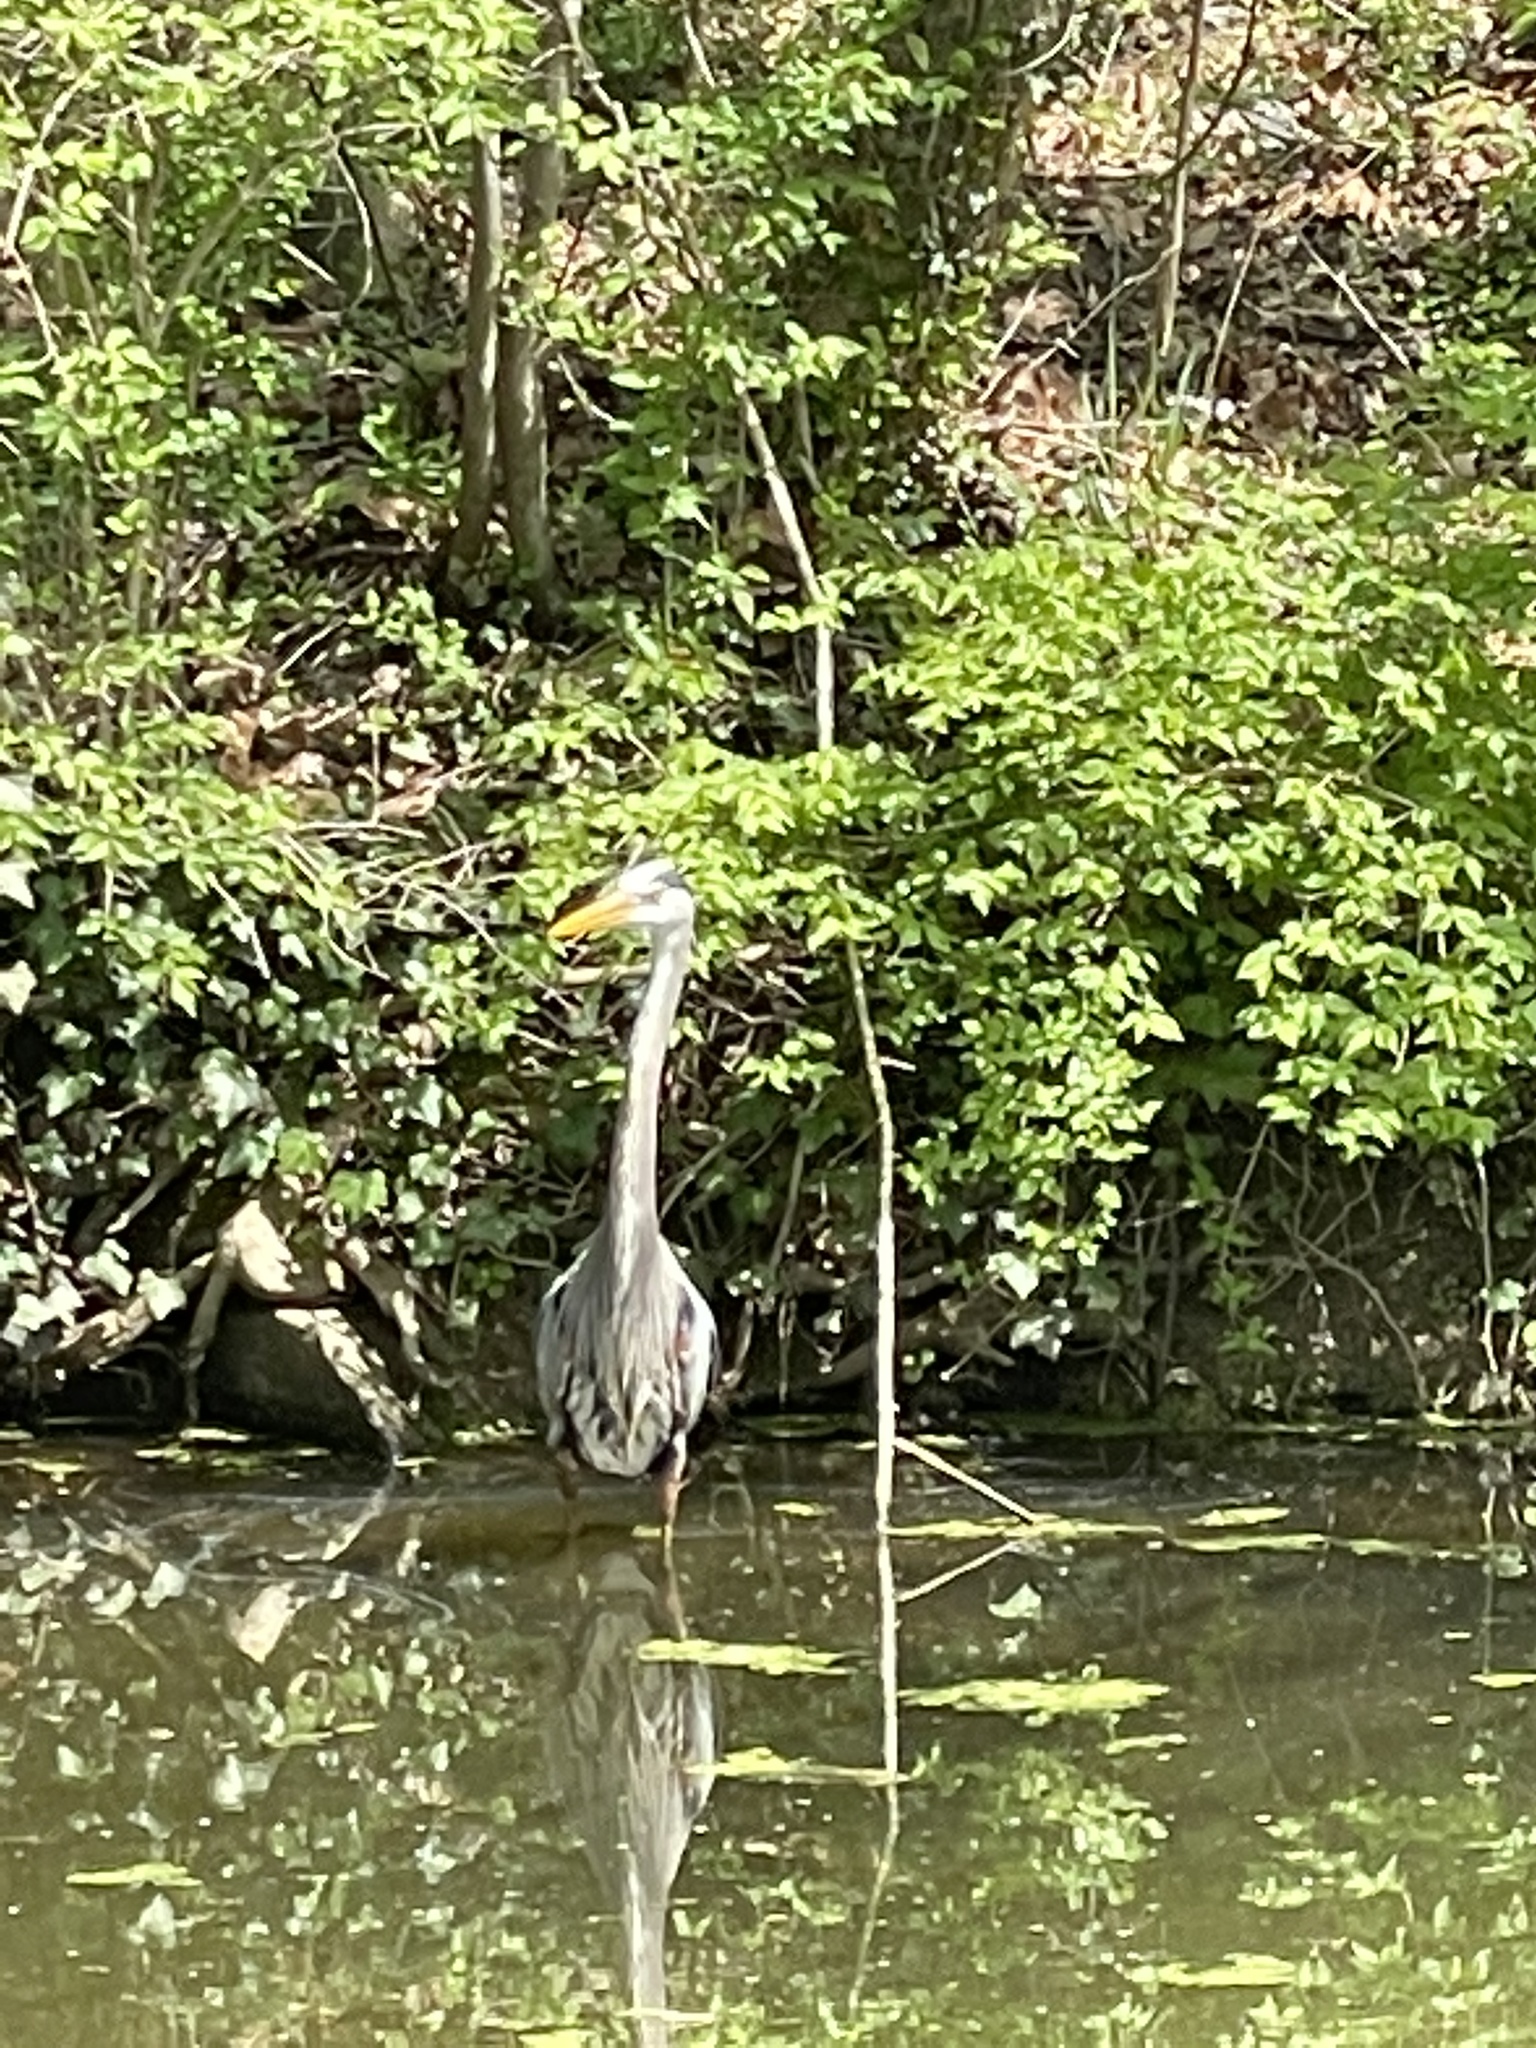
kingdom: Animalia
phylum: Chordata
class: Aves
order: Pelecaniformes
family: Ardeidae
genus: Ardea
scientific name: Ardea herodias
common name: Great blue heron
